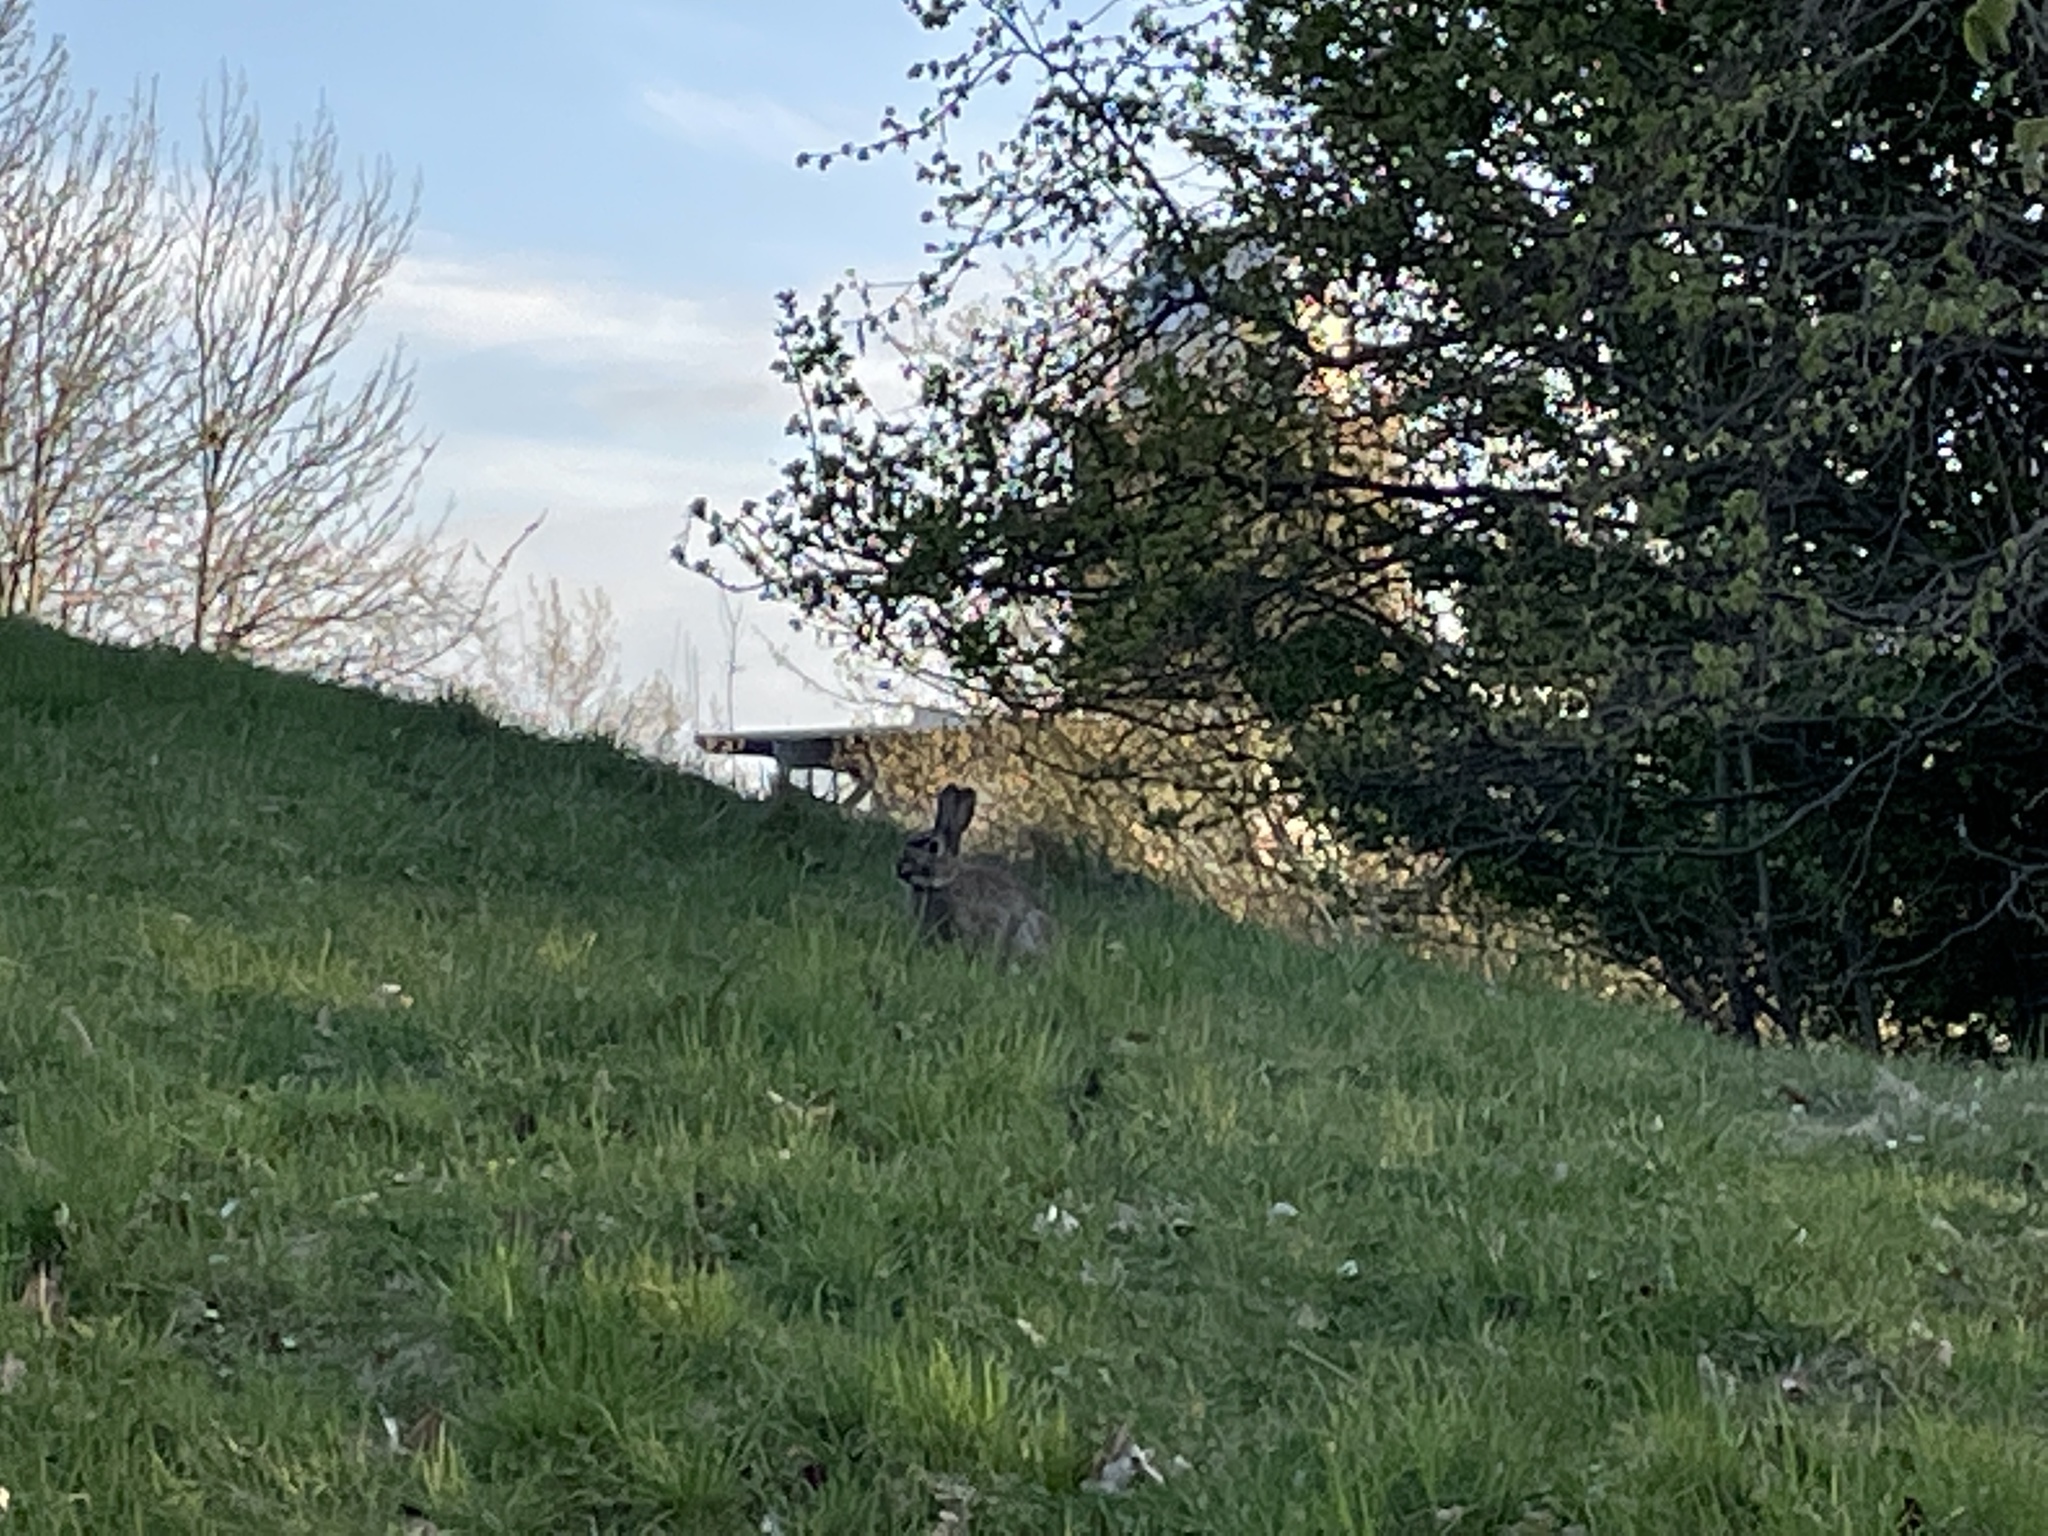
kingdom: Animalia
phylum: Chordata
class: Mammalia
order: Lagomorpha
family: Leporidae
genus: Oryctolagus
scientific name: Oryctolagus cuniculus
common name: European rabbit
